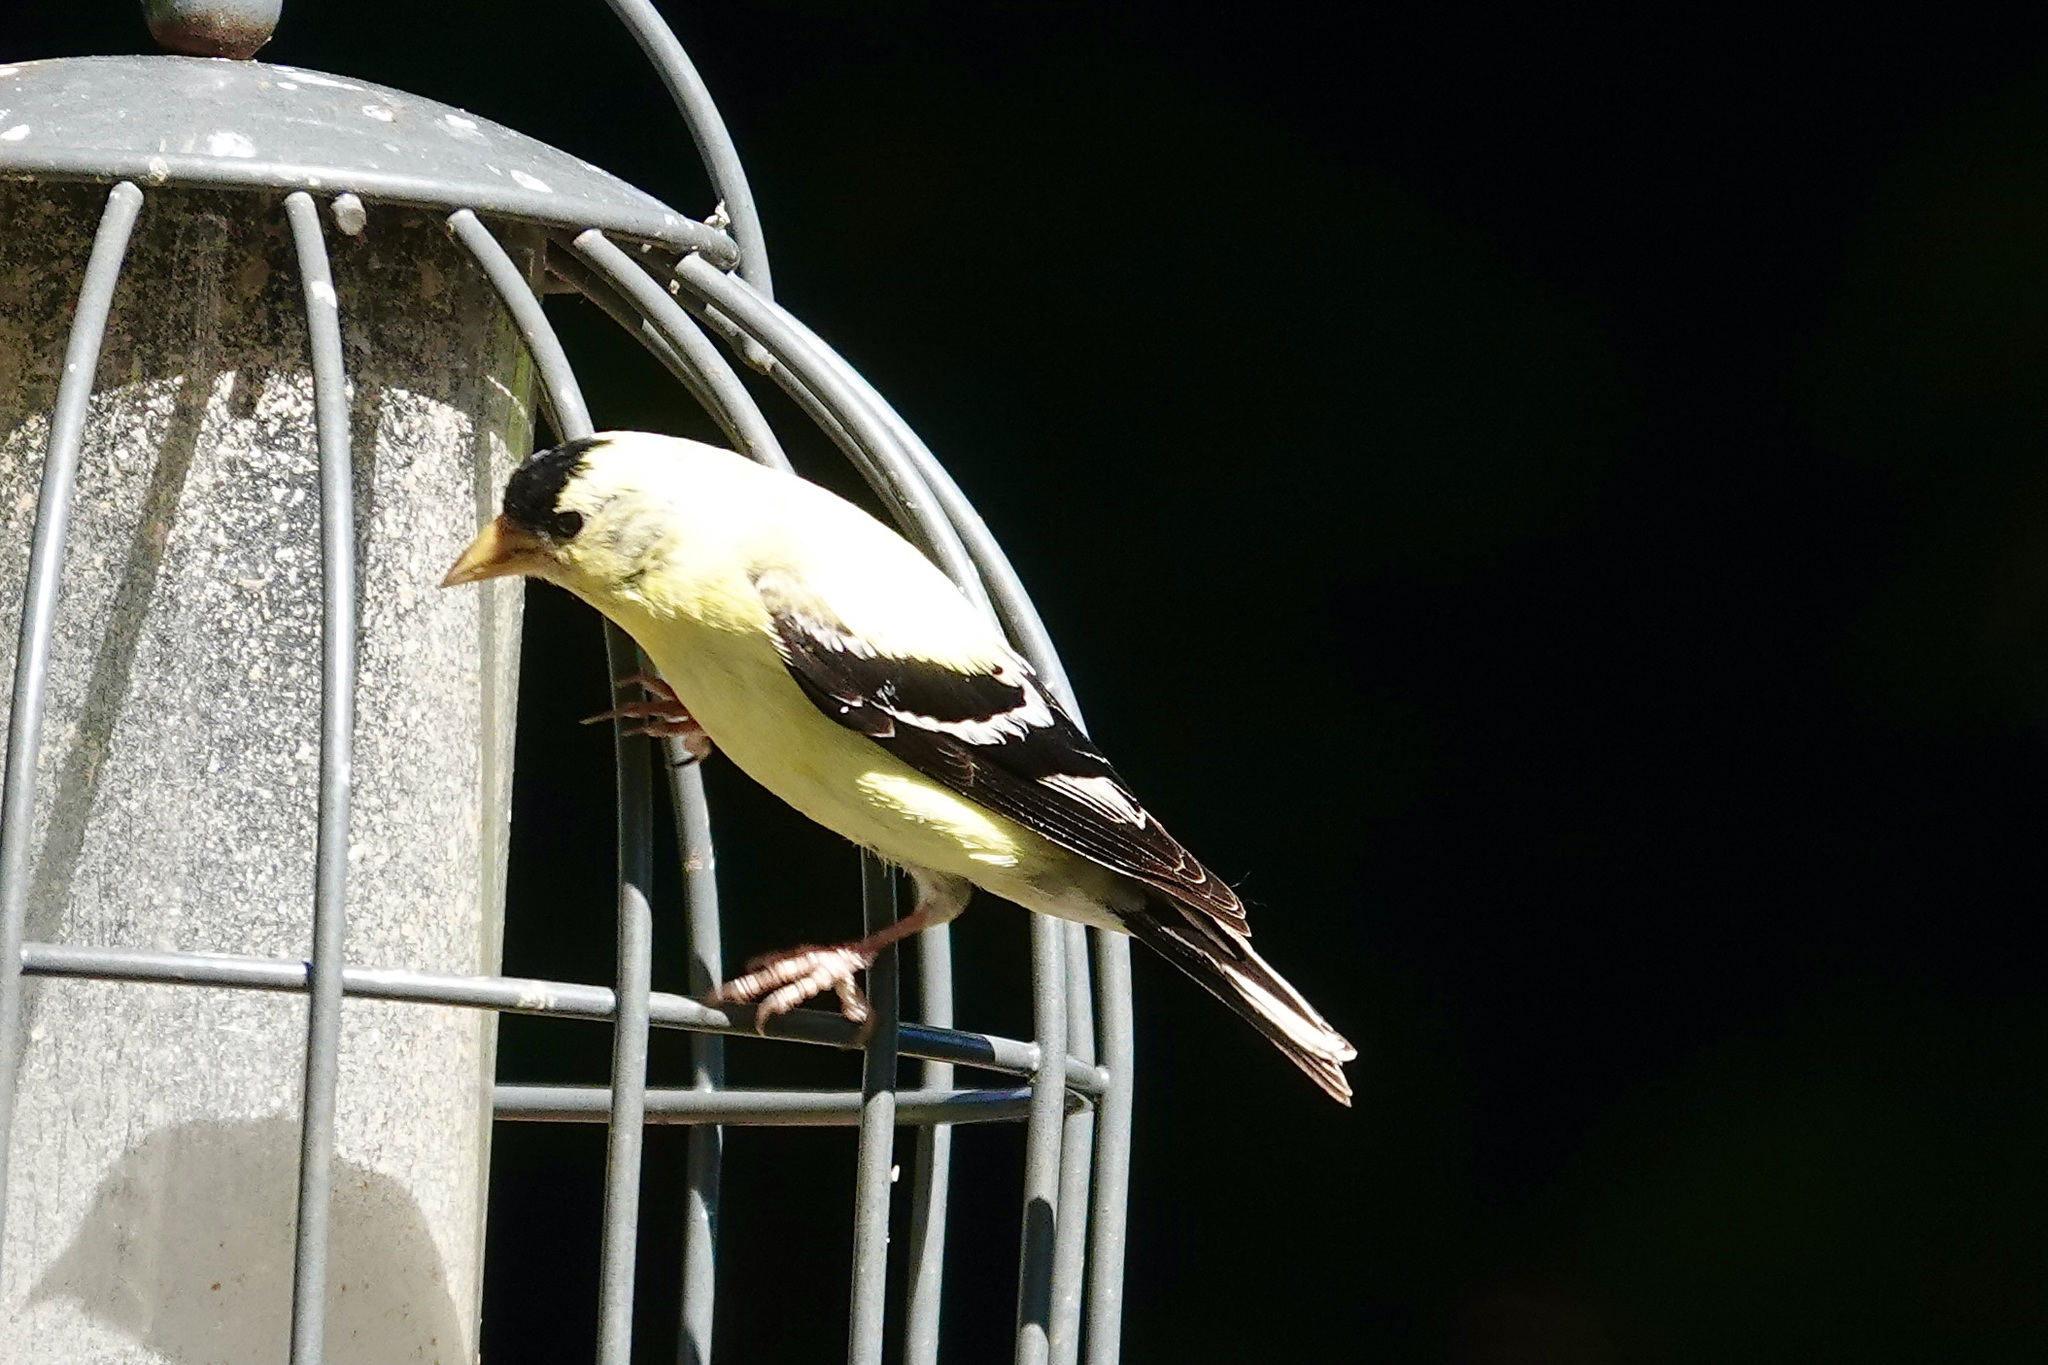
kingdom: Animalia
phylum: Chordata
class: Aves
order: Passeriformes
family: Fringillidae
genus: Spinus
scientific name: Spinus tristis
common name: American goldfinch
